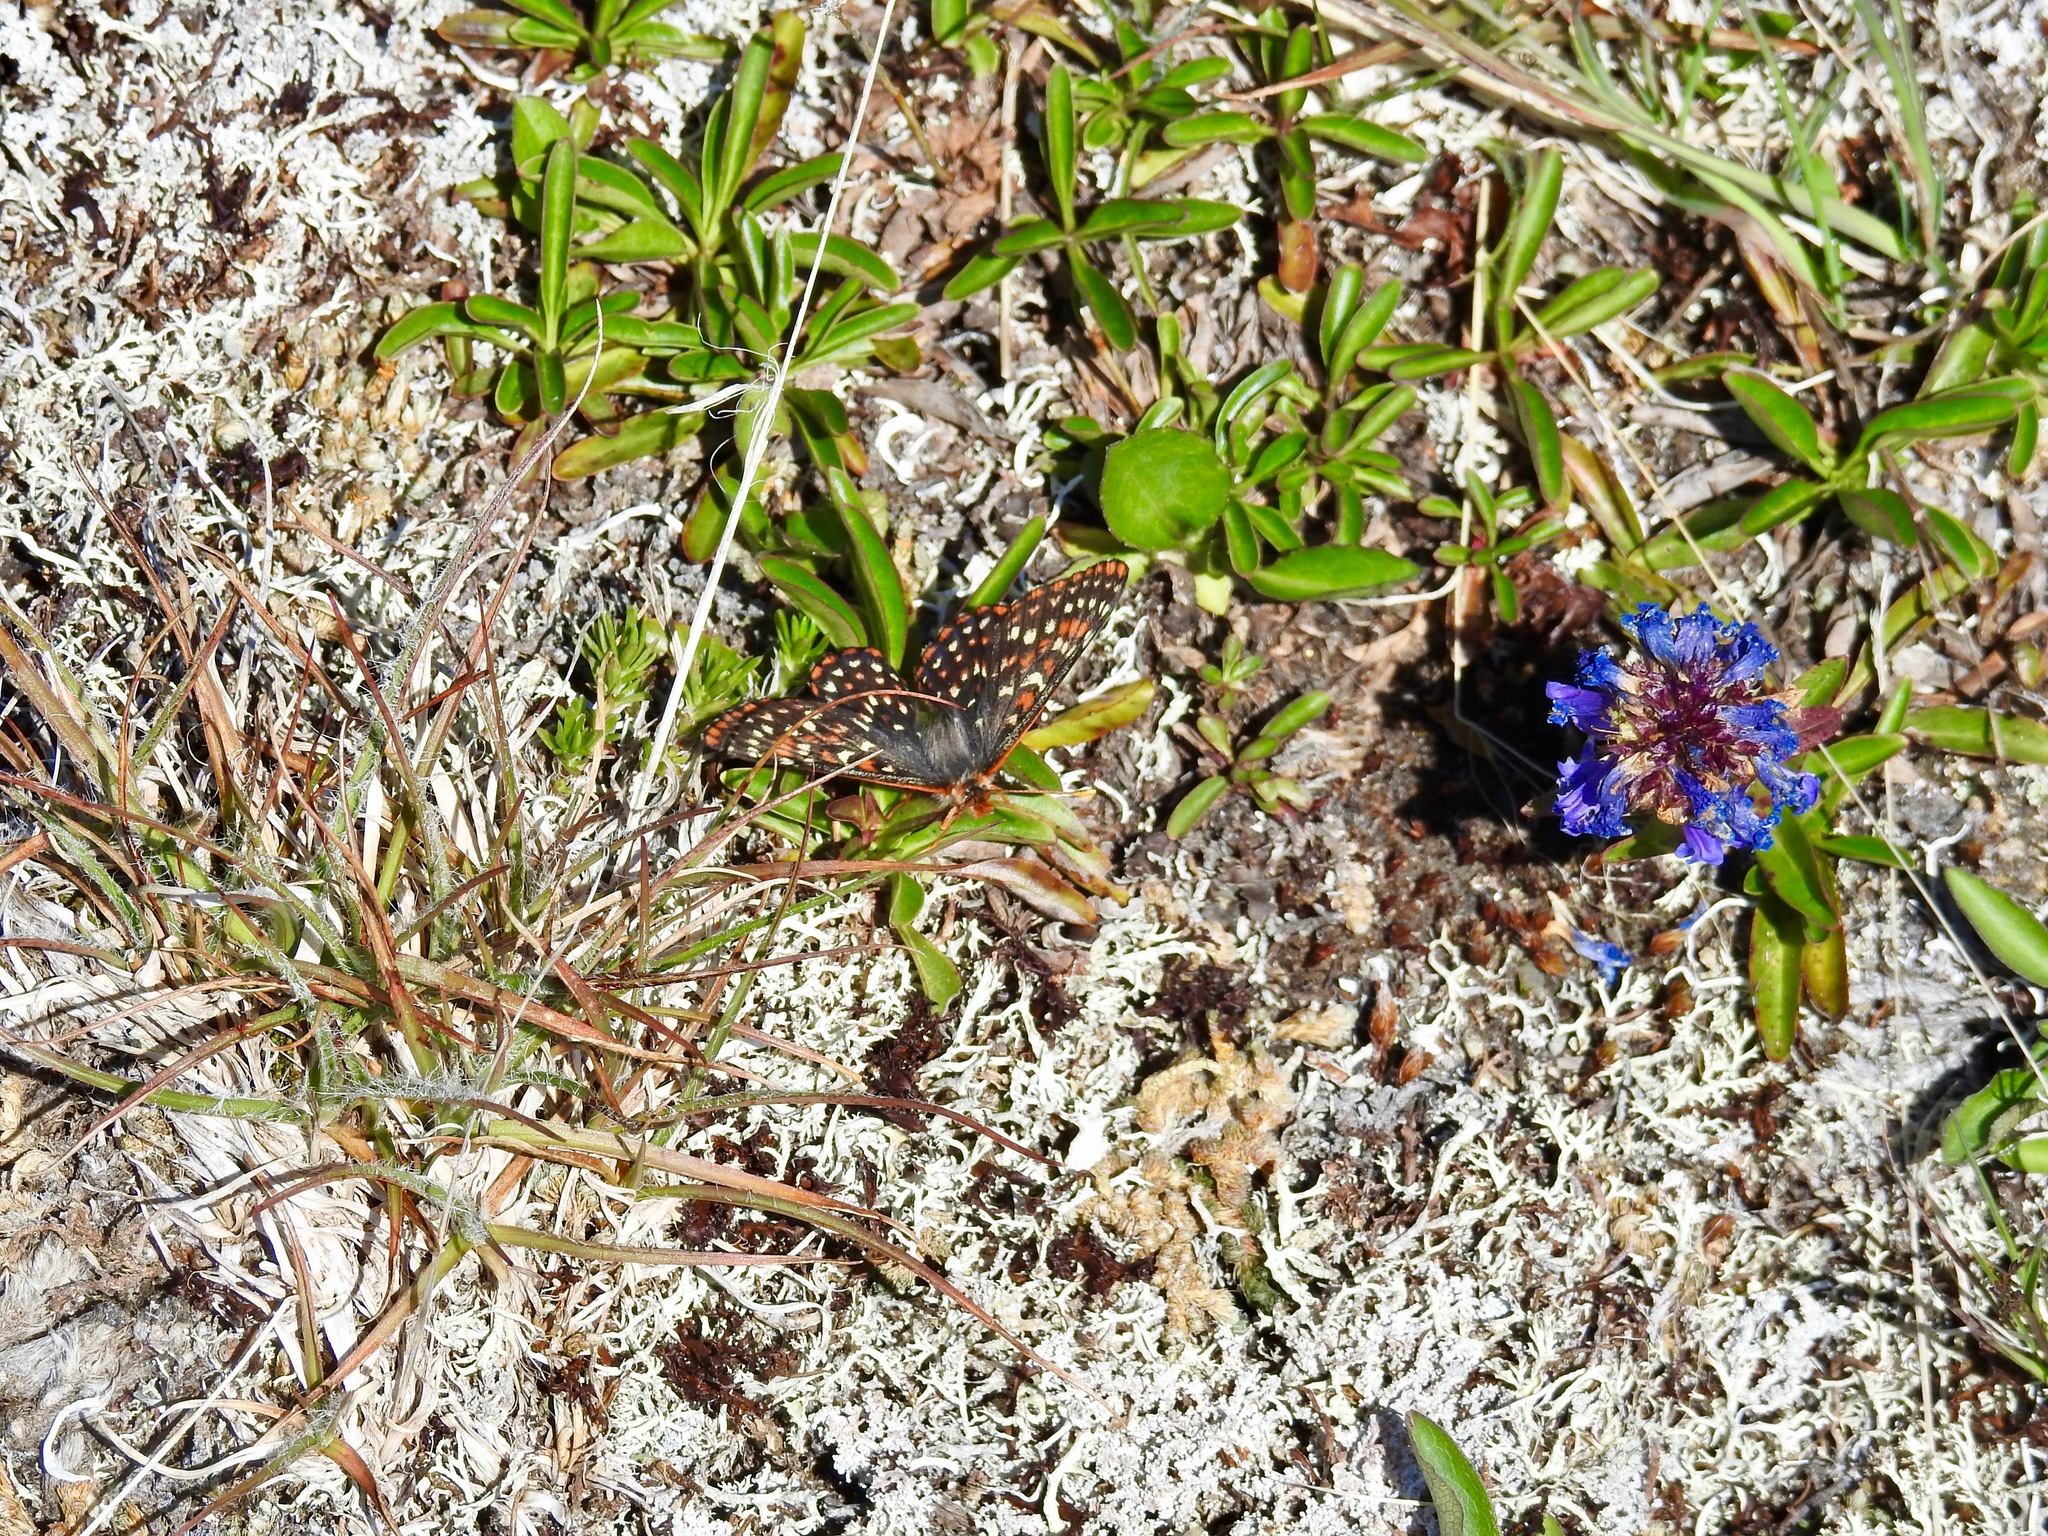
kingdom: Animalia
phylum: Arthropoda
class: Insecta
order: Lepidoptera
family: Nymphalidae
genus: Occidryas
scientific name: Occidryas anicia
